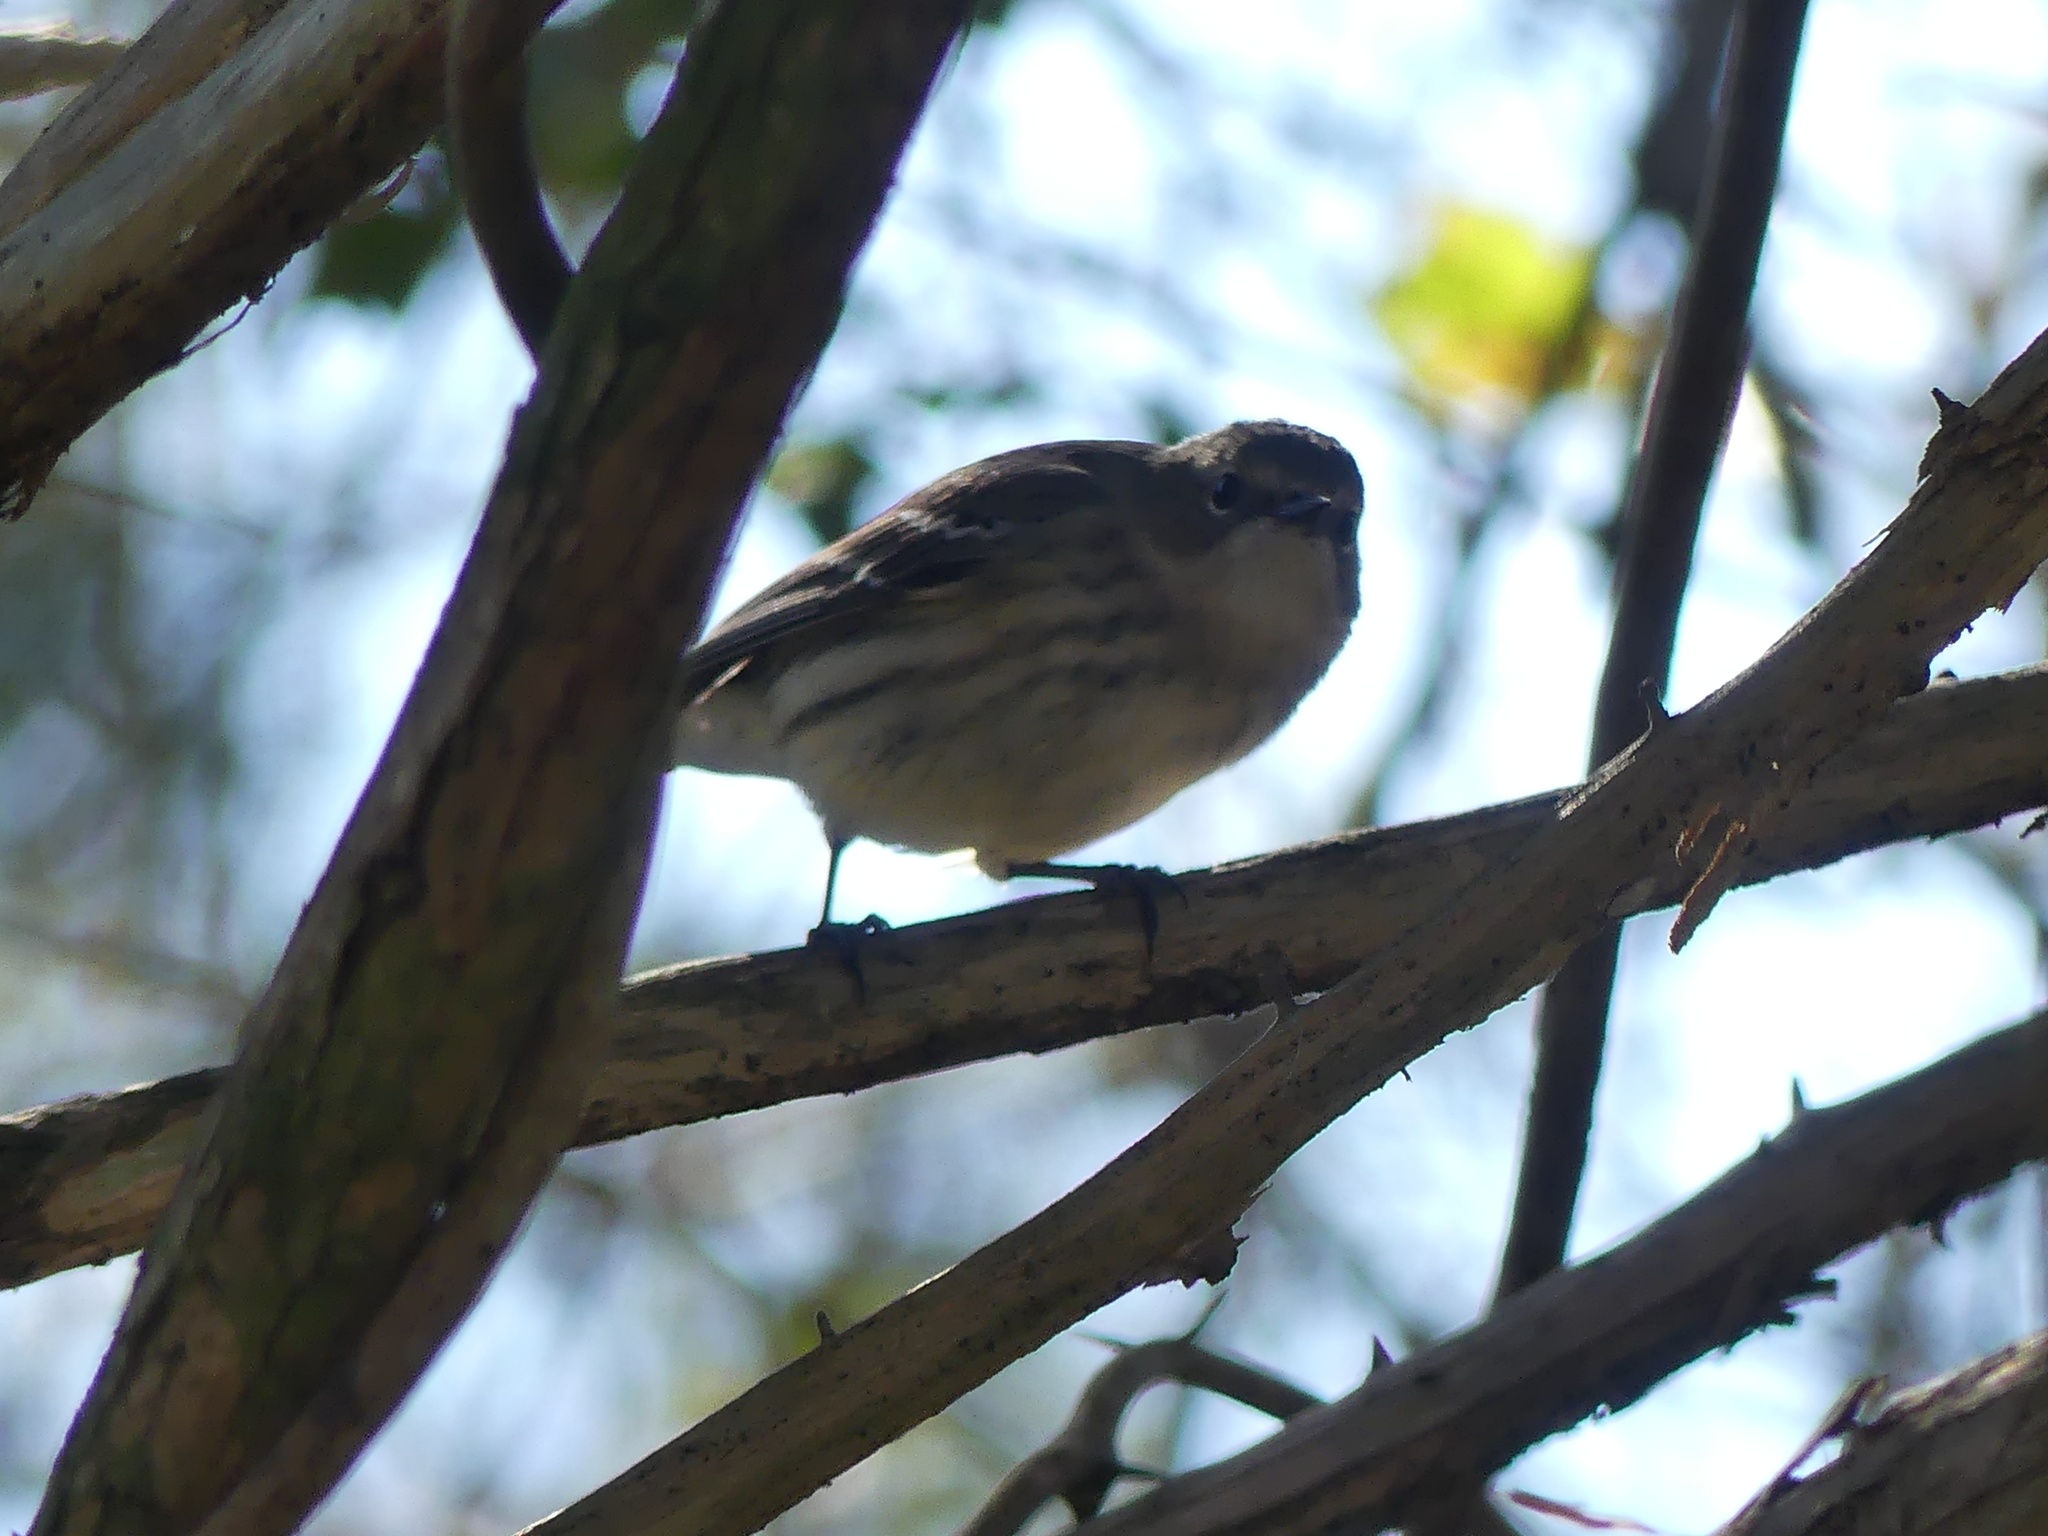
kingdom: Animalia
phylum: Chordata
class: Aves
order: Passeriformes
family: Parulidae
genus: Setophaga
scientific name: Setophaga coronata
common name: Myrtle warbler
